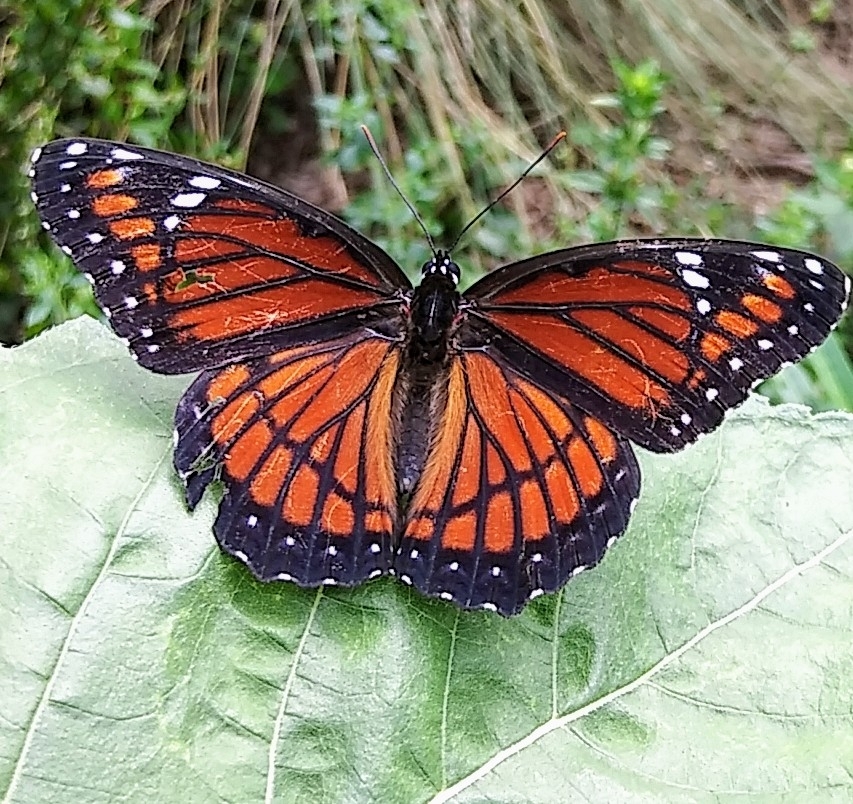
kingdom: Animalia
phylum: Arthropoda
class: Insecta
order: Lepidoptera
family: Nymphalidae
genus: Limenitis
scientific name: Limenitis archippus
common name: Viceroy
